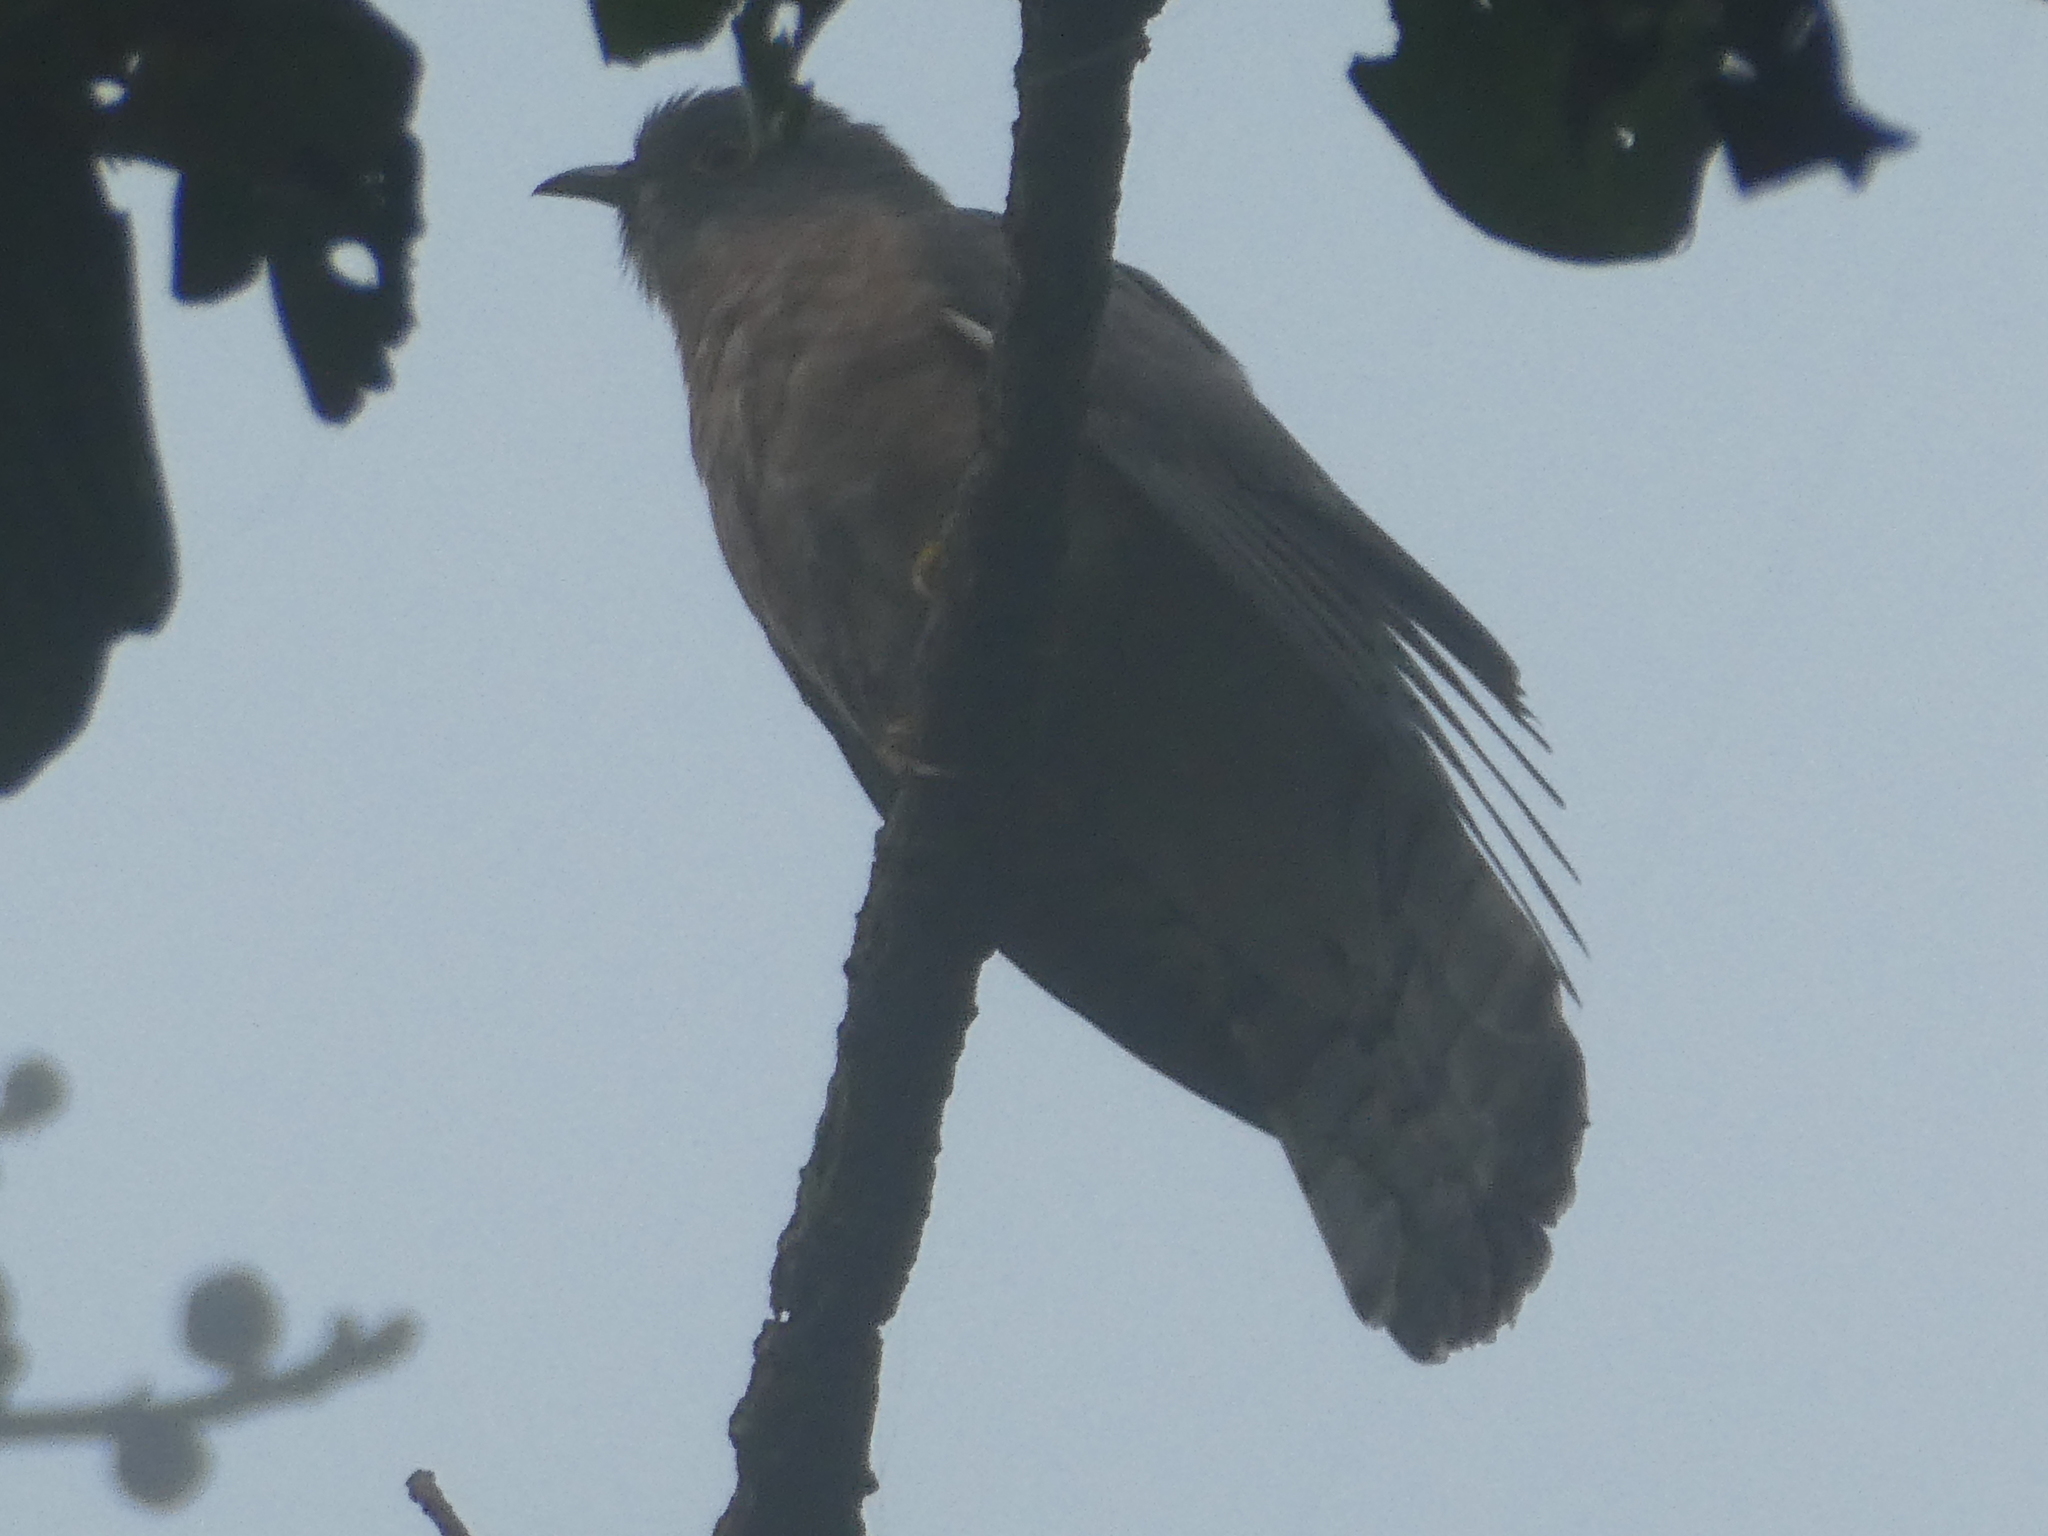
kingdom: Animalia
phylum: Chordata
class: Aves
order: Cuculiformes
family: Cuculidae
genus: Cuculus
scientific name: Cuculus varius
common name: Common hawk cuckoo
